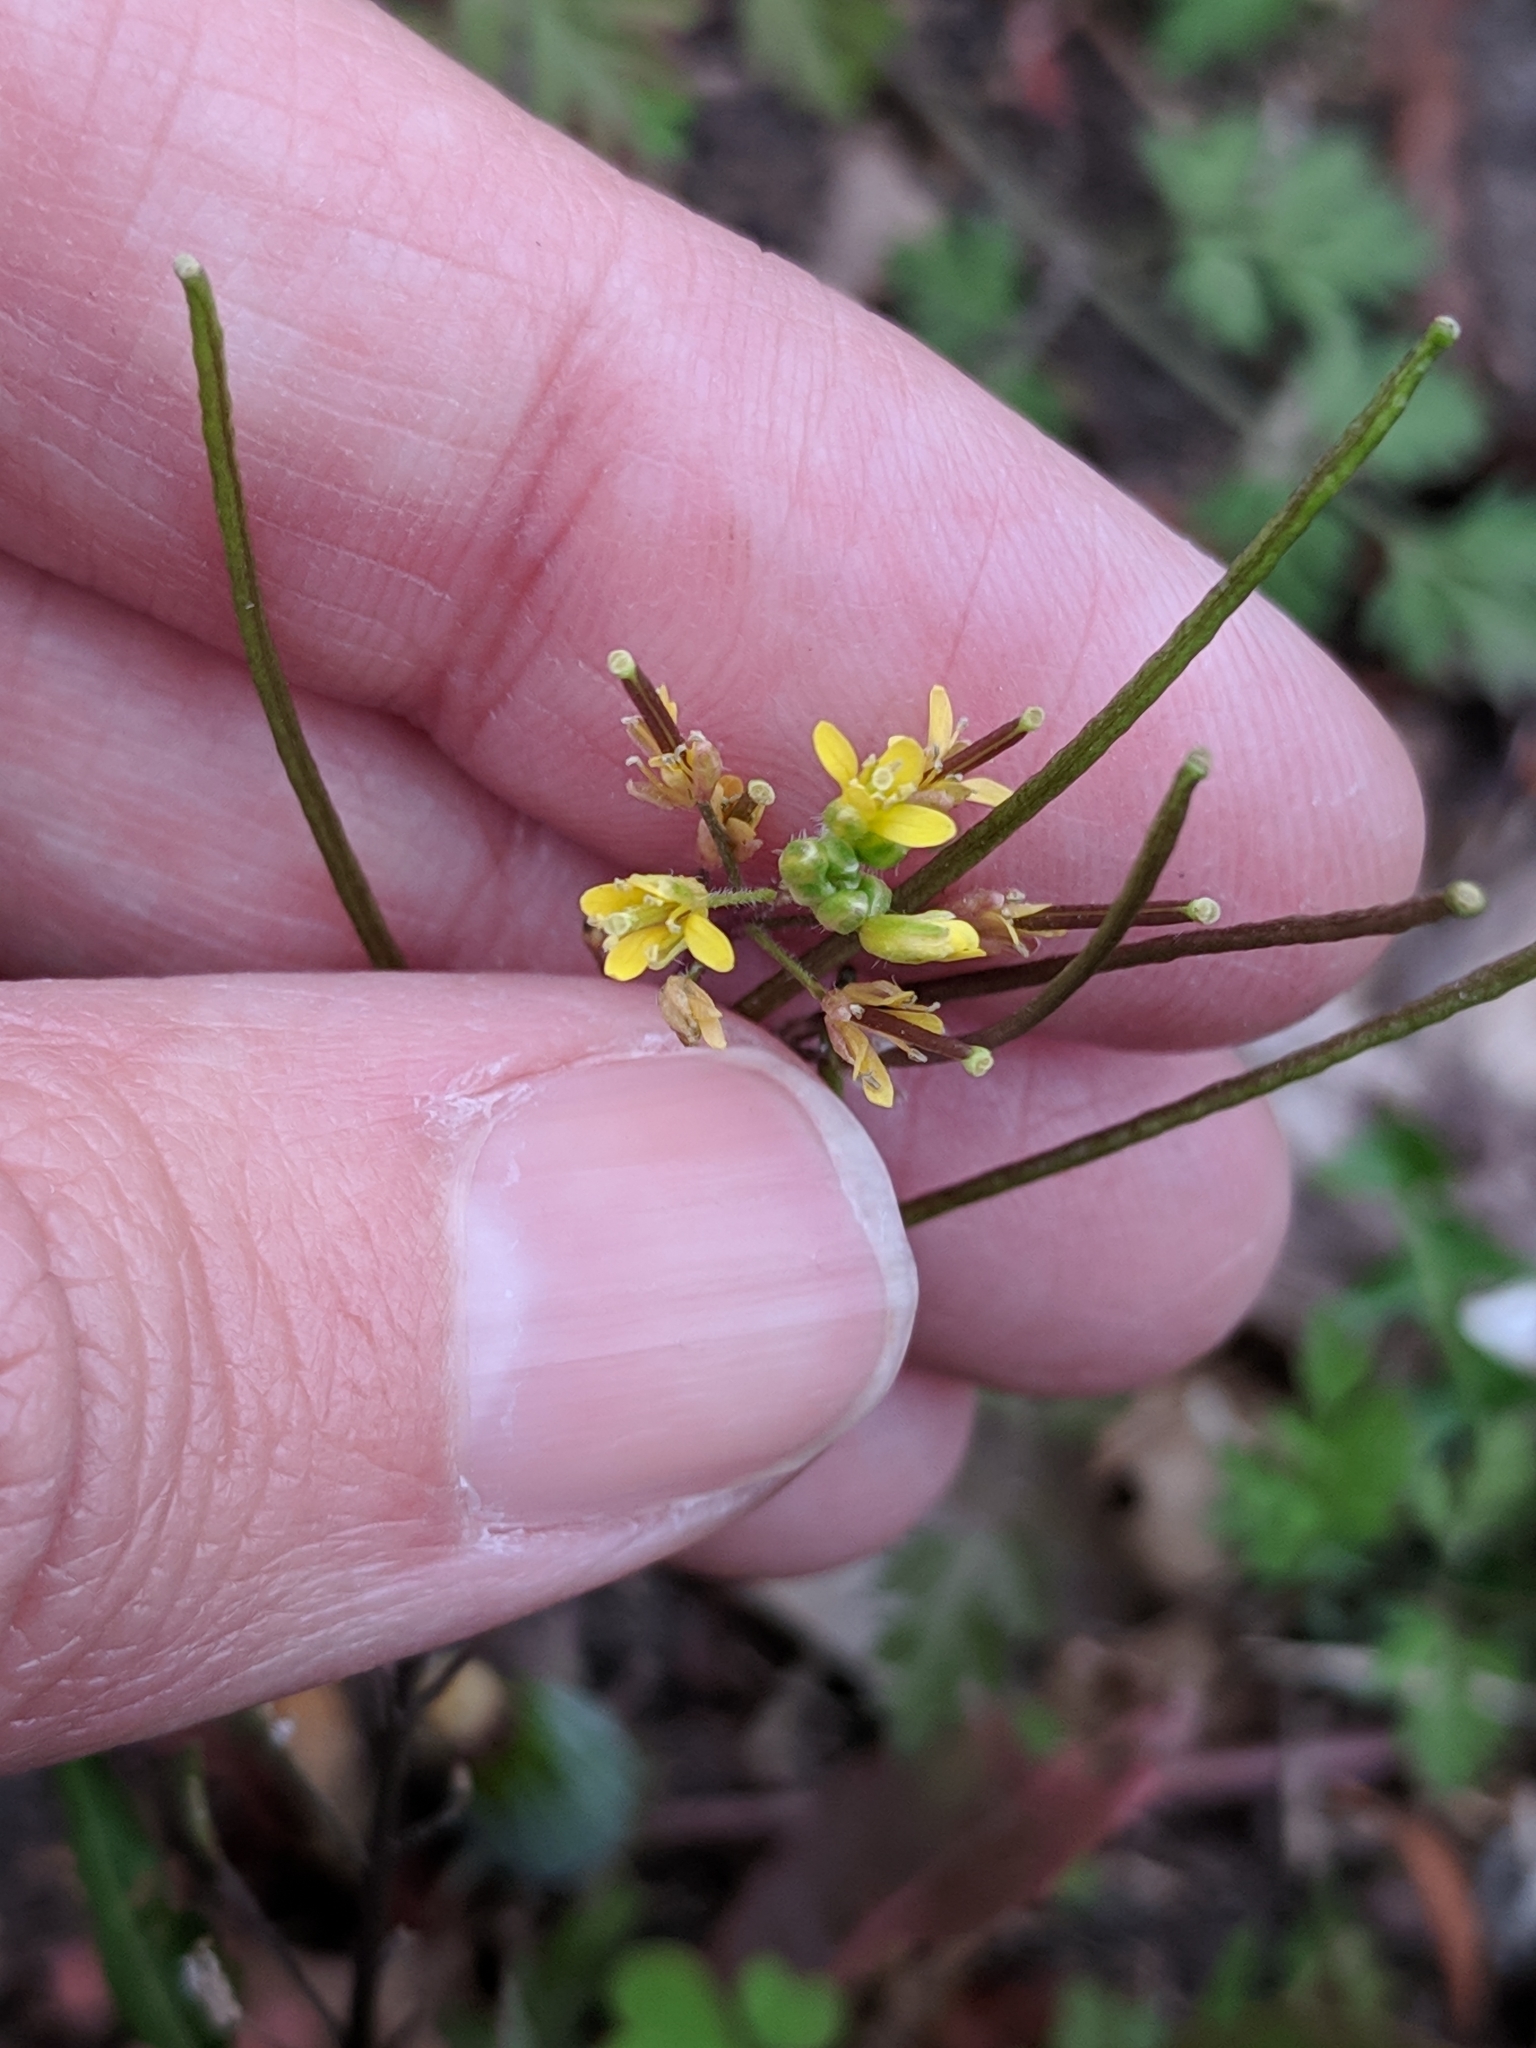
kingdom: Plantae
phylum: Tracheophyta
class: Magnoliopsida
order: Brassicales
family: Brassicaceae
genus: Sisymbrium
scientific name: Sisymbrium irio
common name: London rocket
